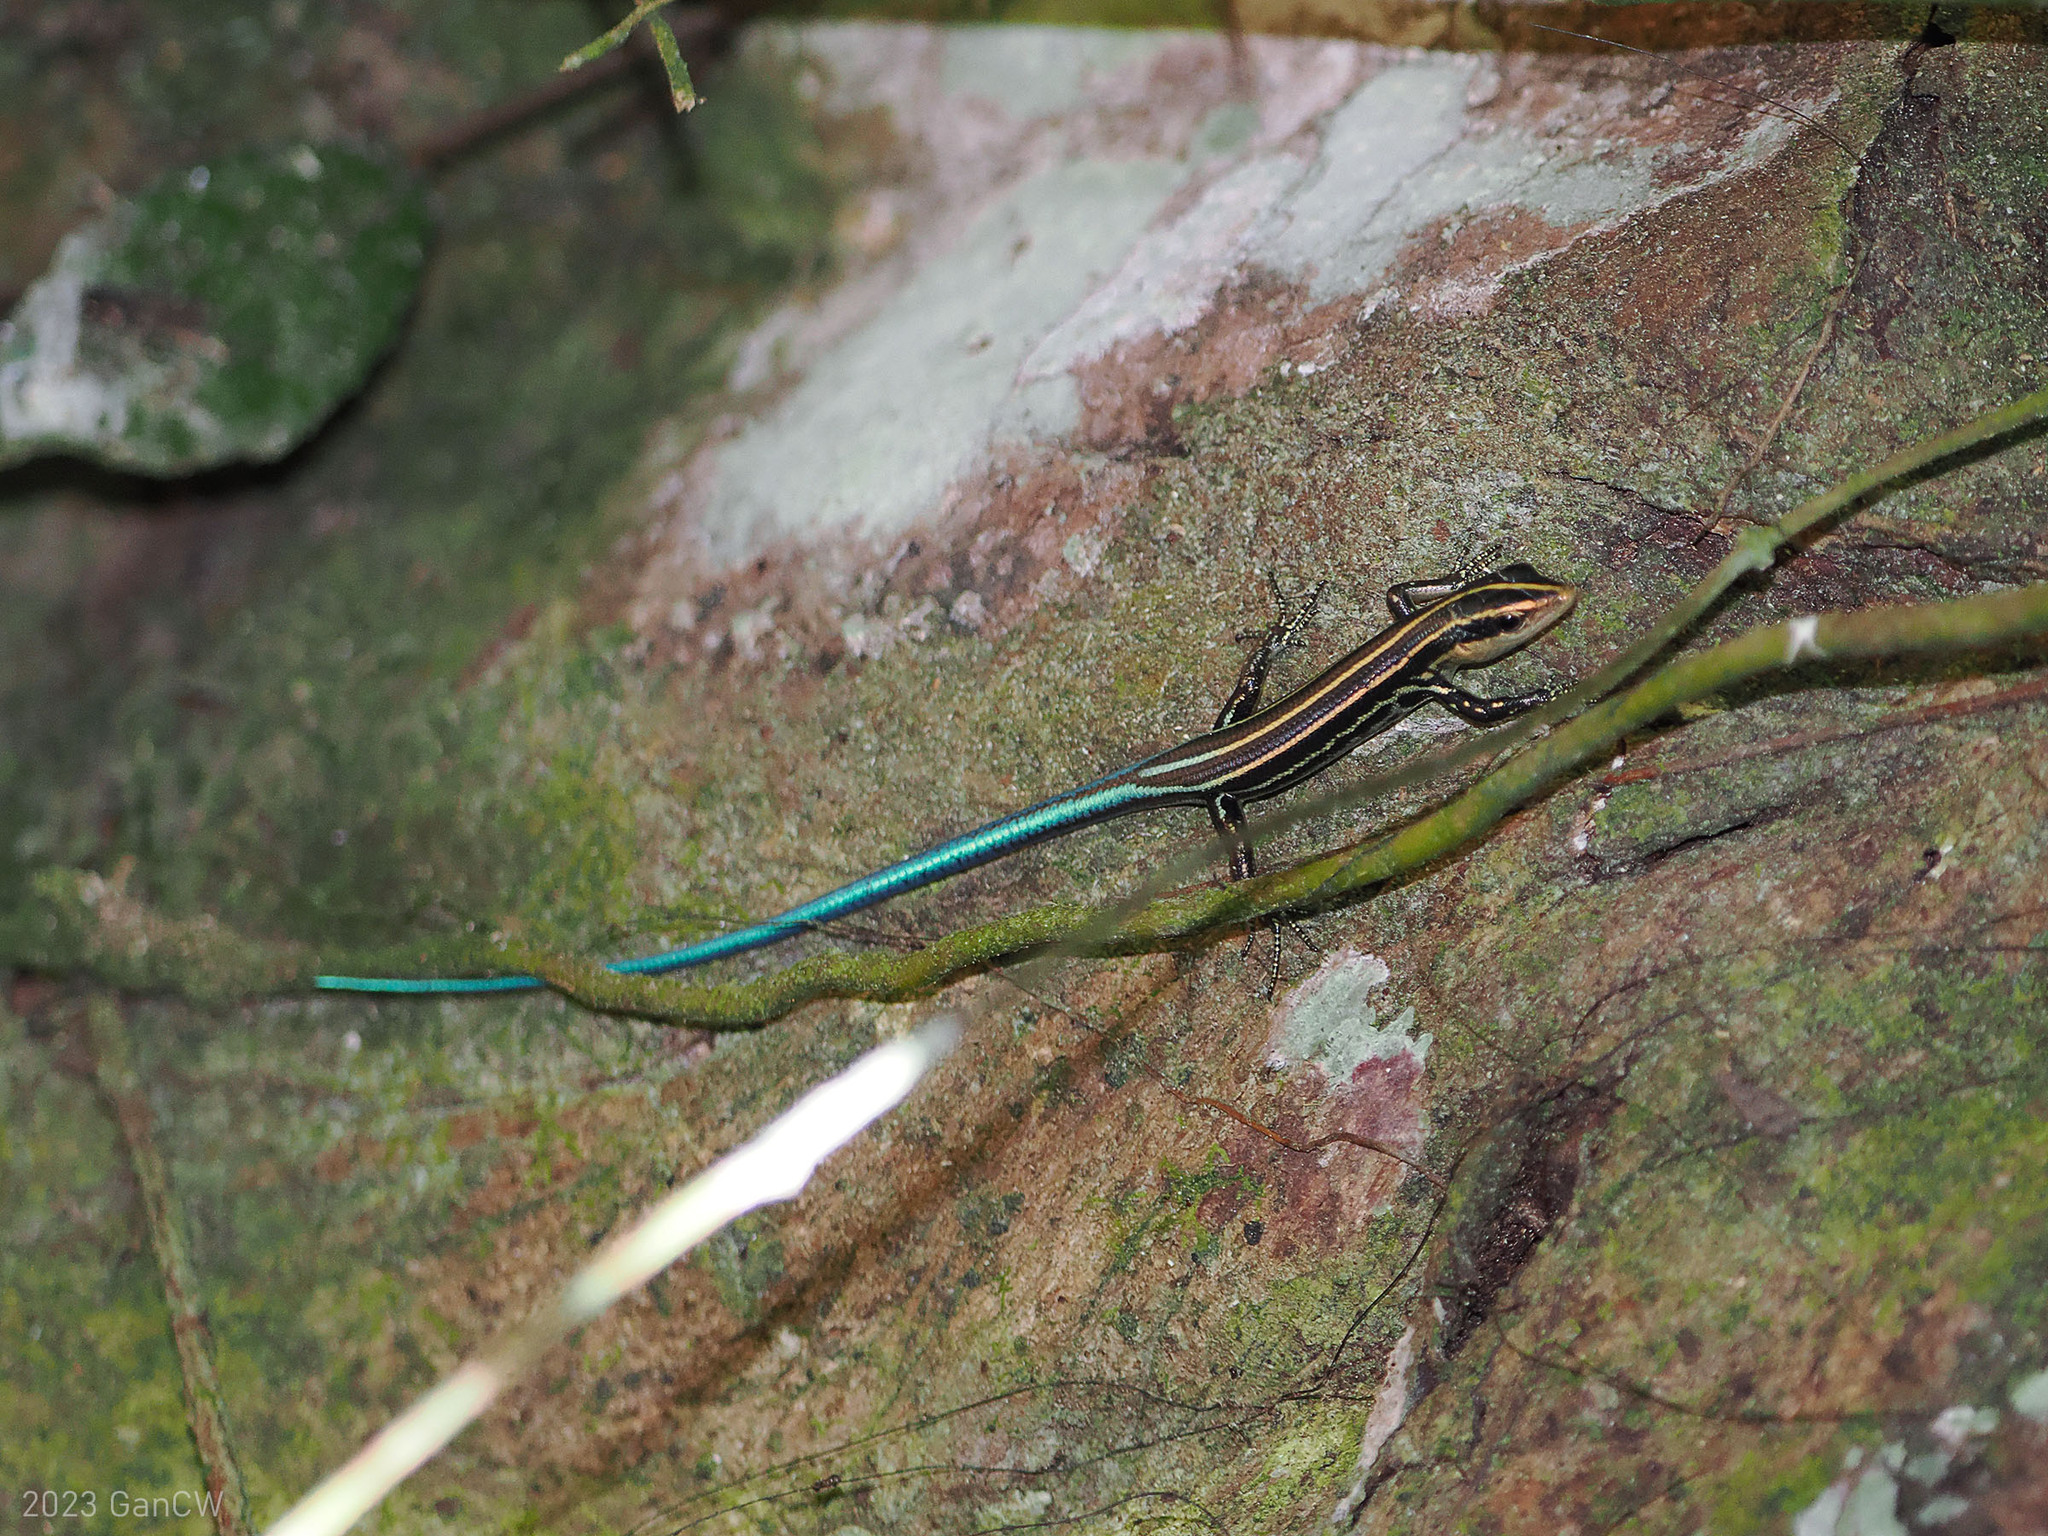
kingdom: Animalia
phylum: Chordata
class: Squamata
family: Scincidae
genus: Emoia
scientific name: Emoia caeruleocauda
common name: Pacific bluetail skink
